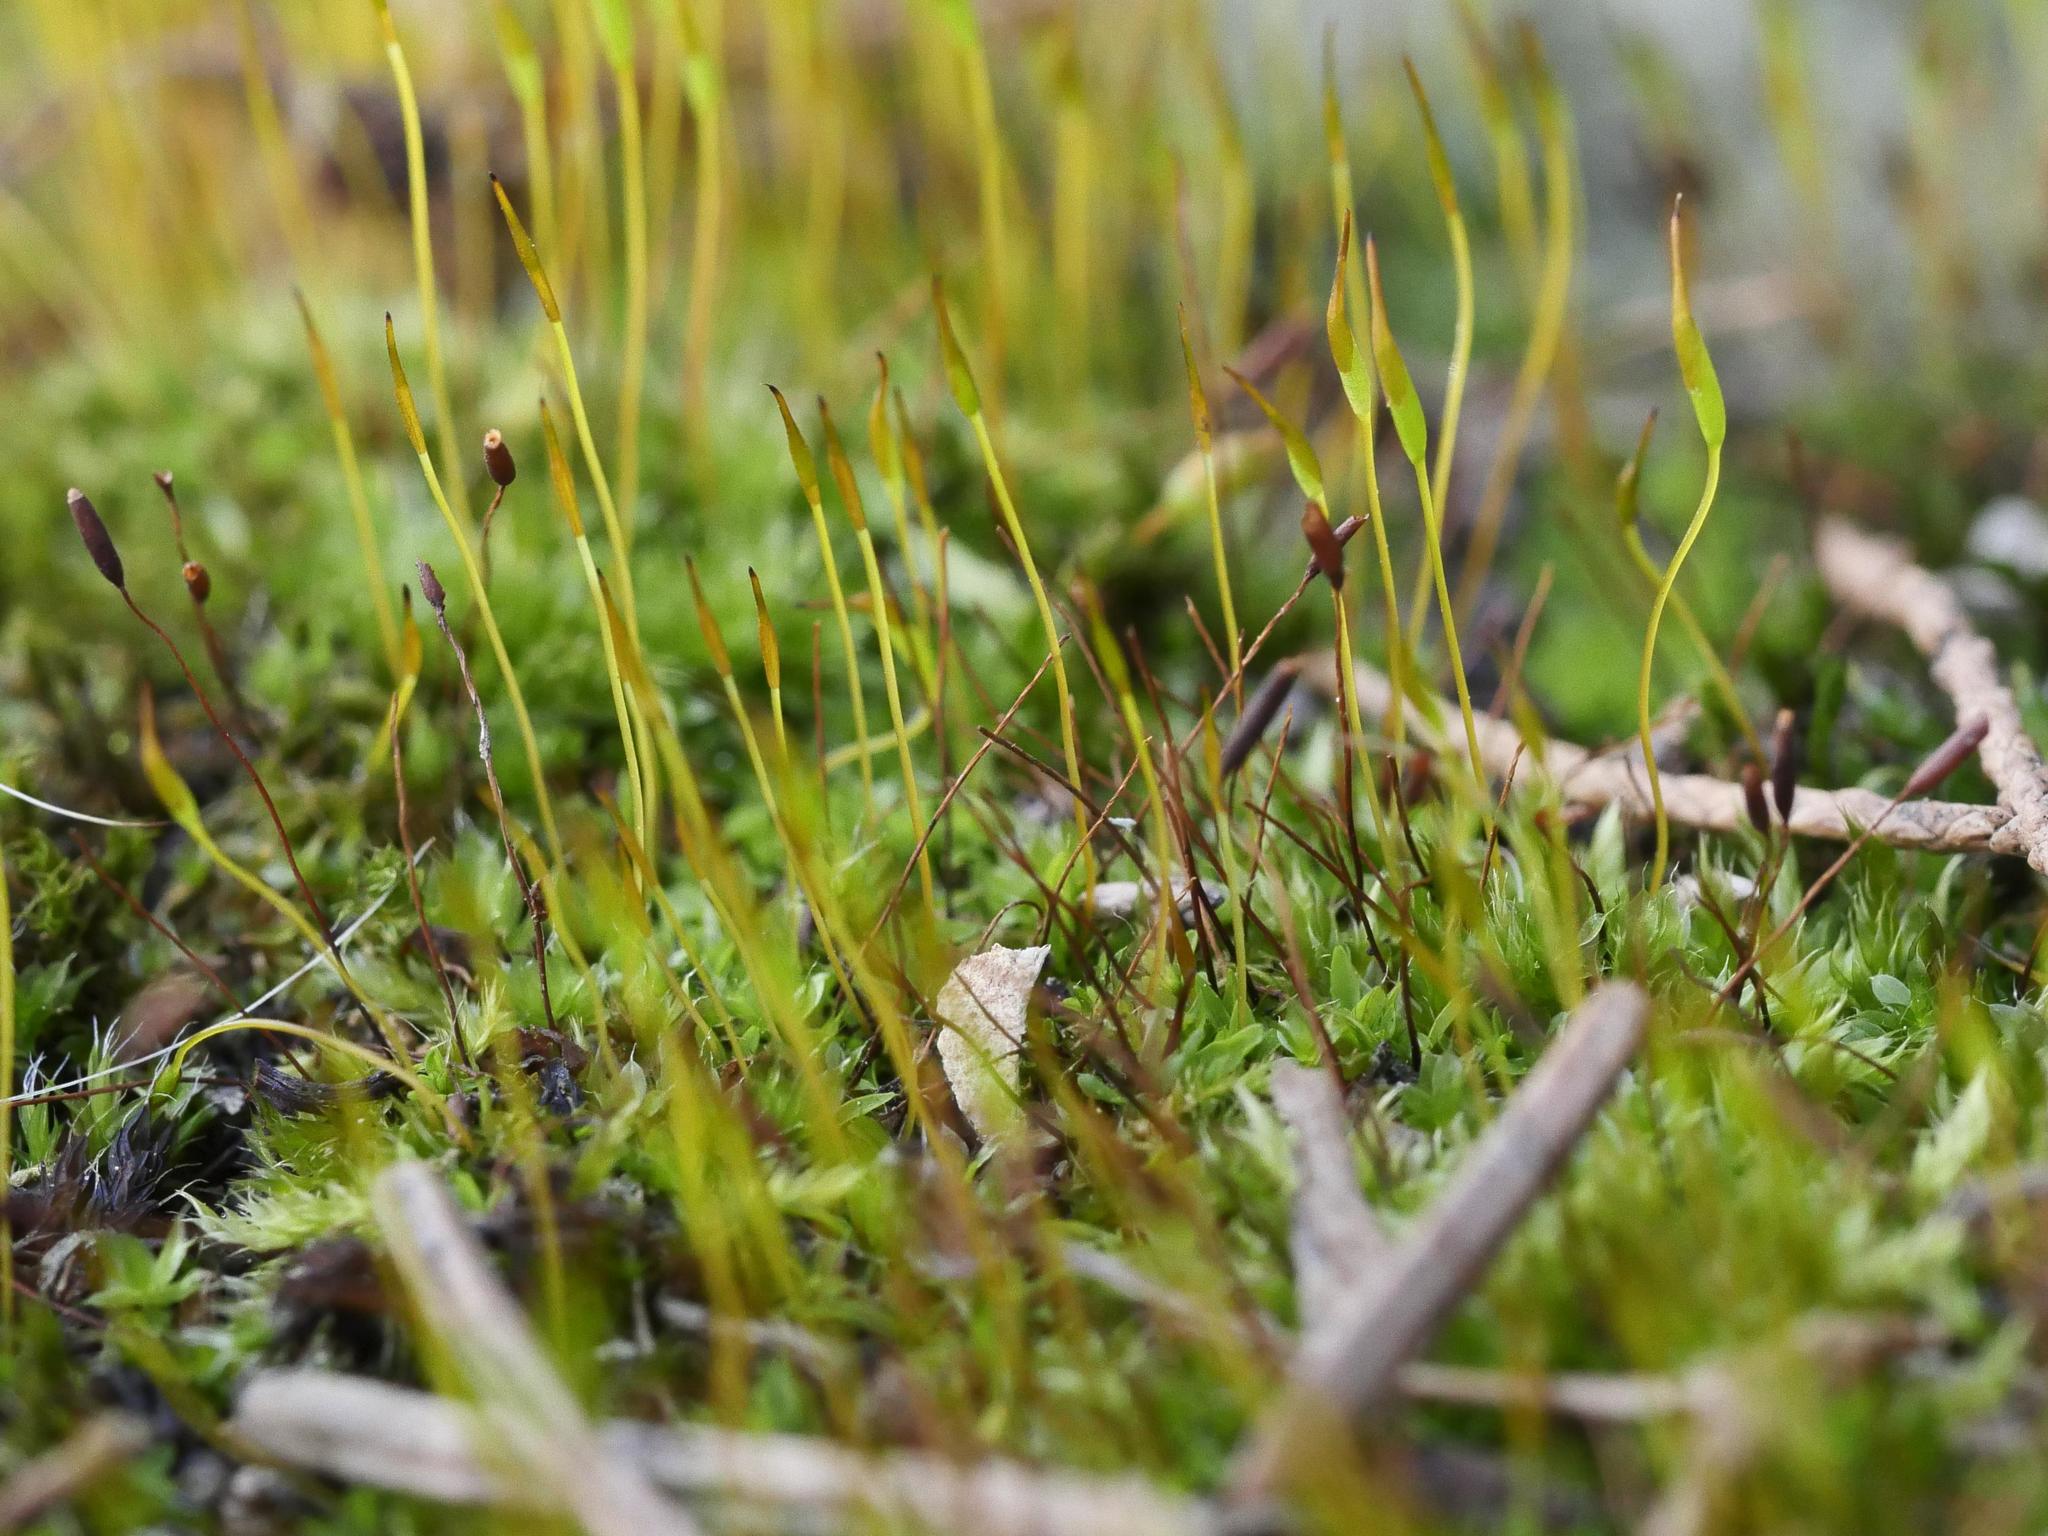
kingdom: Plantae
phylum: Bryophyta
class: Bryopsida
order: Pottiales
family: Pottiaceae
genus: Tortula
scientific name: Tortula muralis
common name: Wall screw-moss
